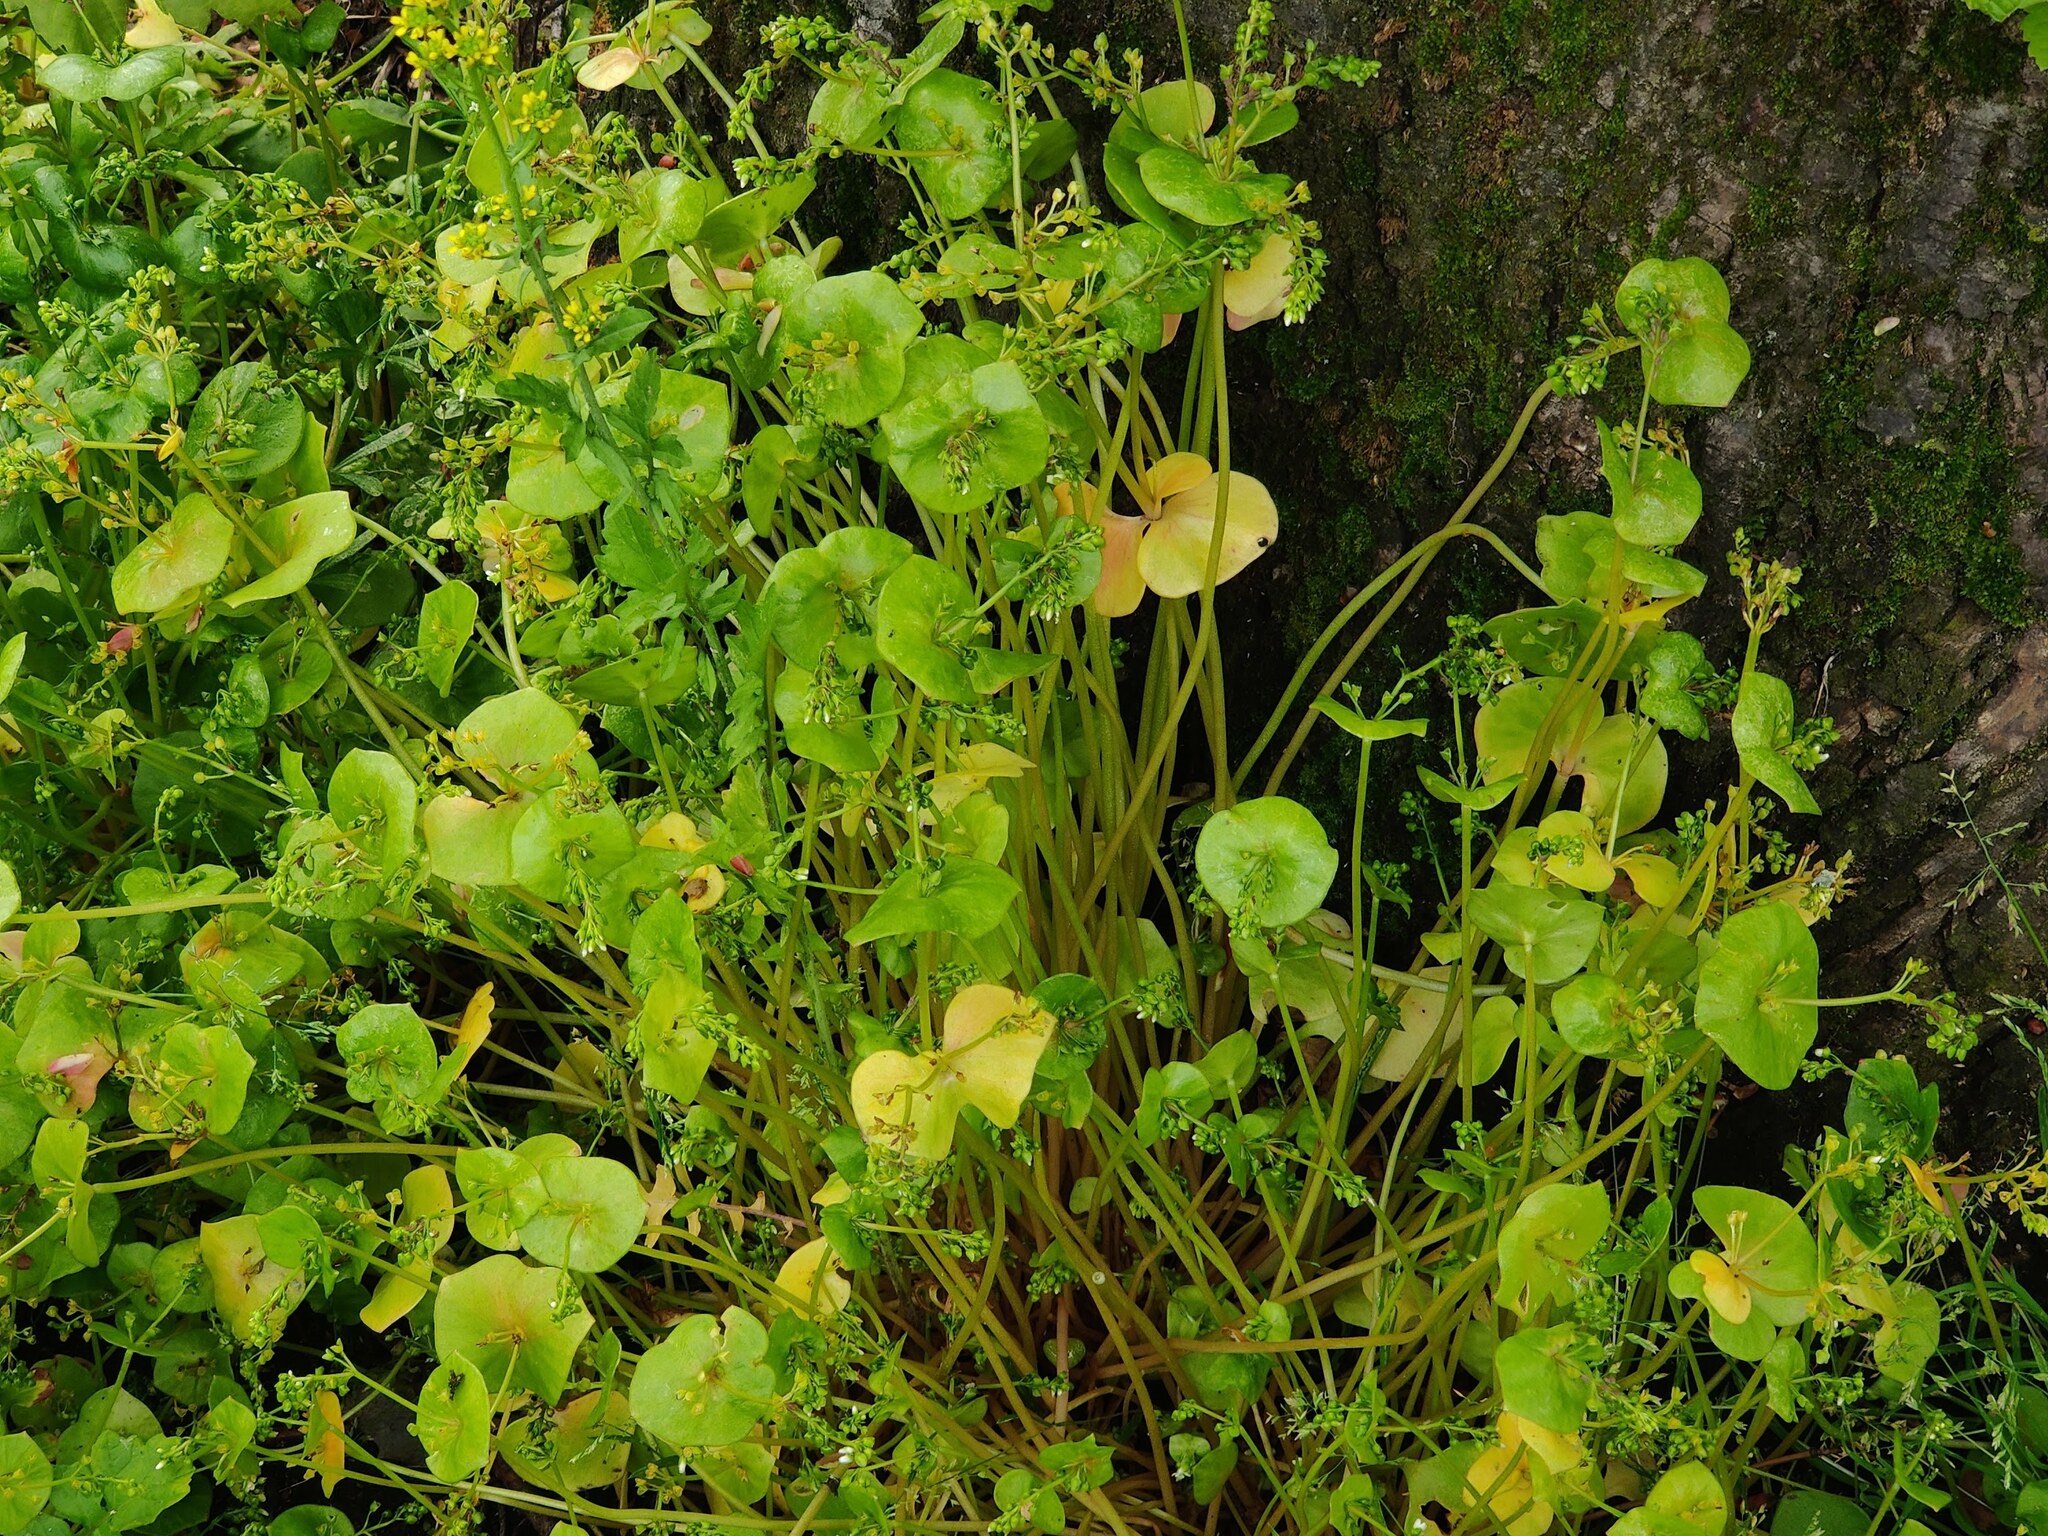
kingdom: Plantae
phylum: Tracheophyta
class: Magnoliopsida
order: Caryophyllales
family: Montiaceae
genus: Claytonia
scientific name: Claytonia perfoliata
